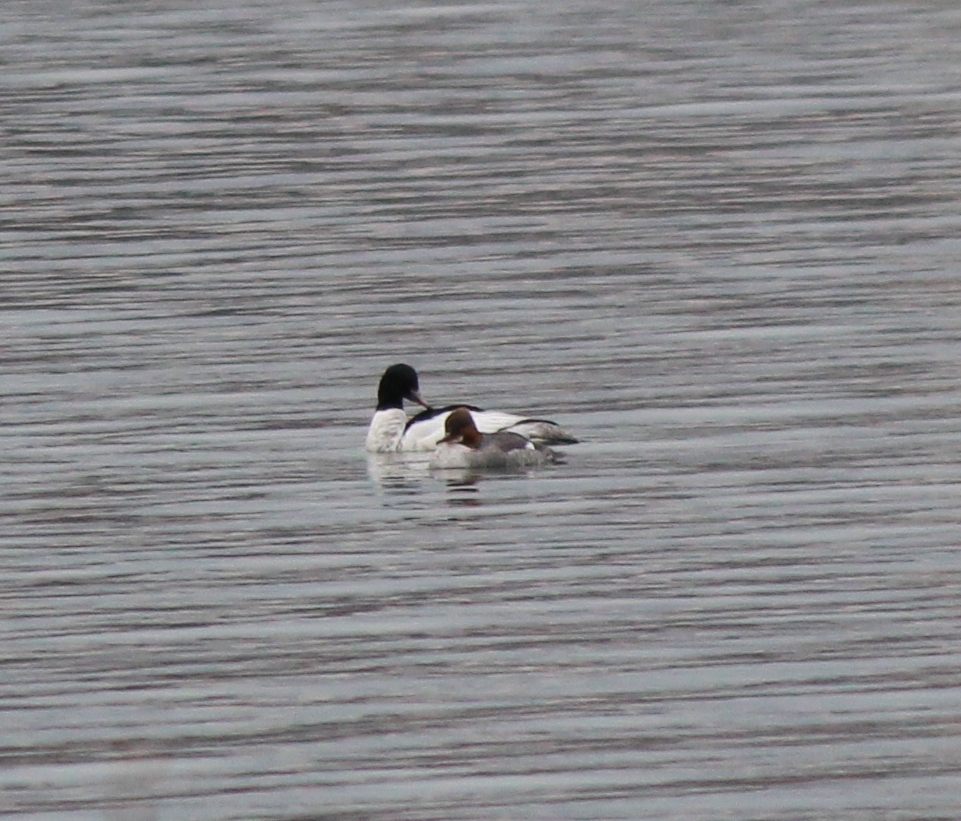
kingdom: Animalia
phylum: Chordata
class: Aves
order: Anseriformes
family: Anatidae
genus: Mergus
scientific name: Mergus merganser
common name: Common merganser
